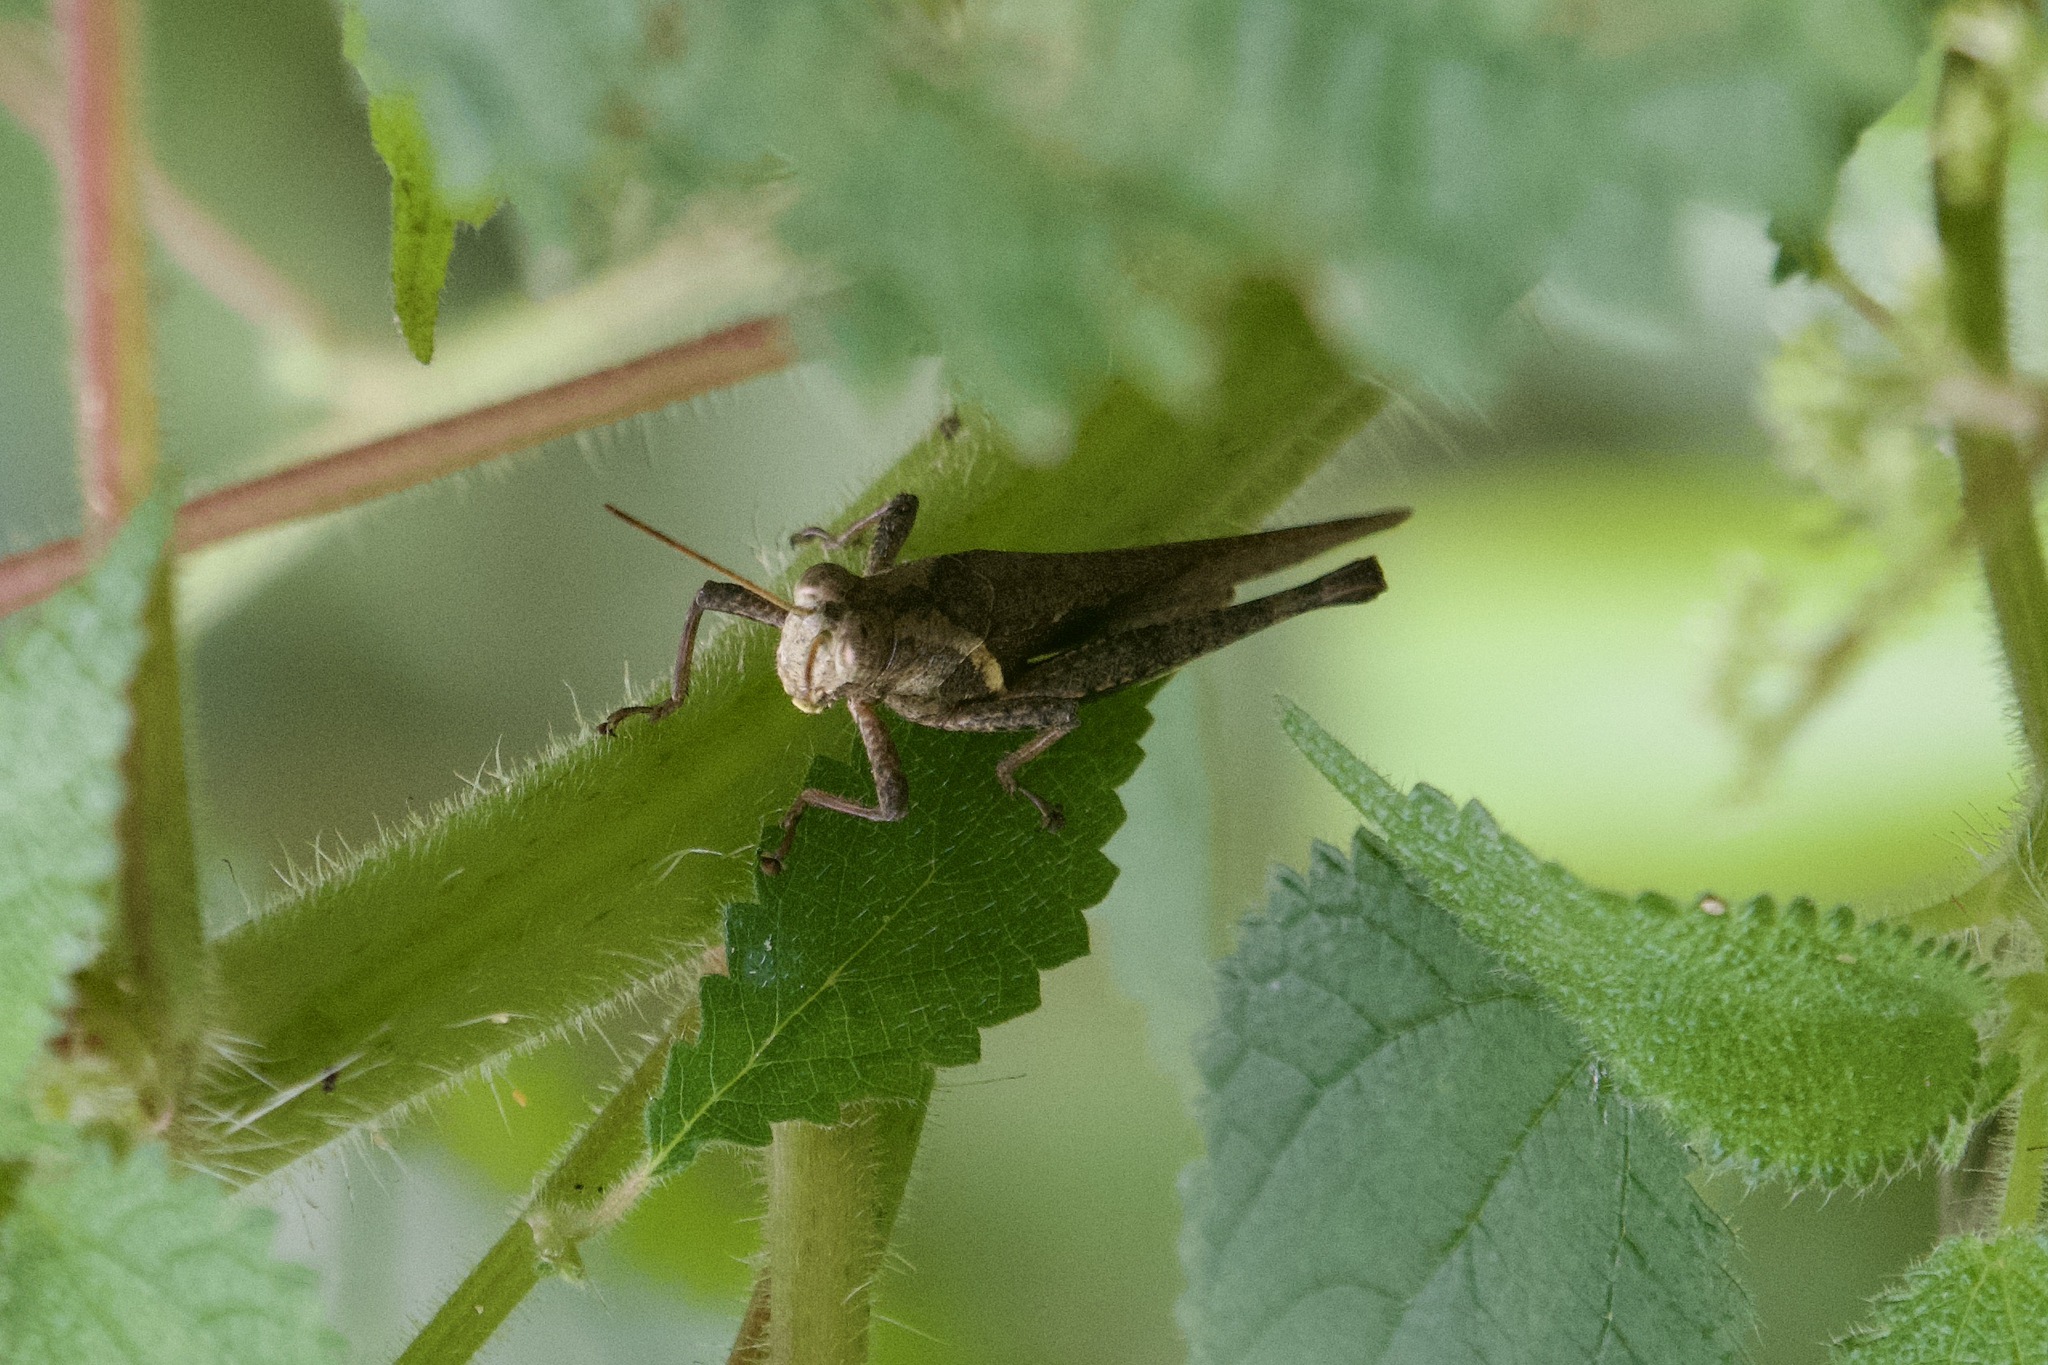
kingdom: Animalia
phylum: Arthropoda
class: Insecta
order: Orthoptera
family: Acrididae
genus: Abracris
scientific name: Abracris flavolineata
